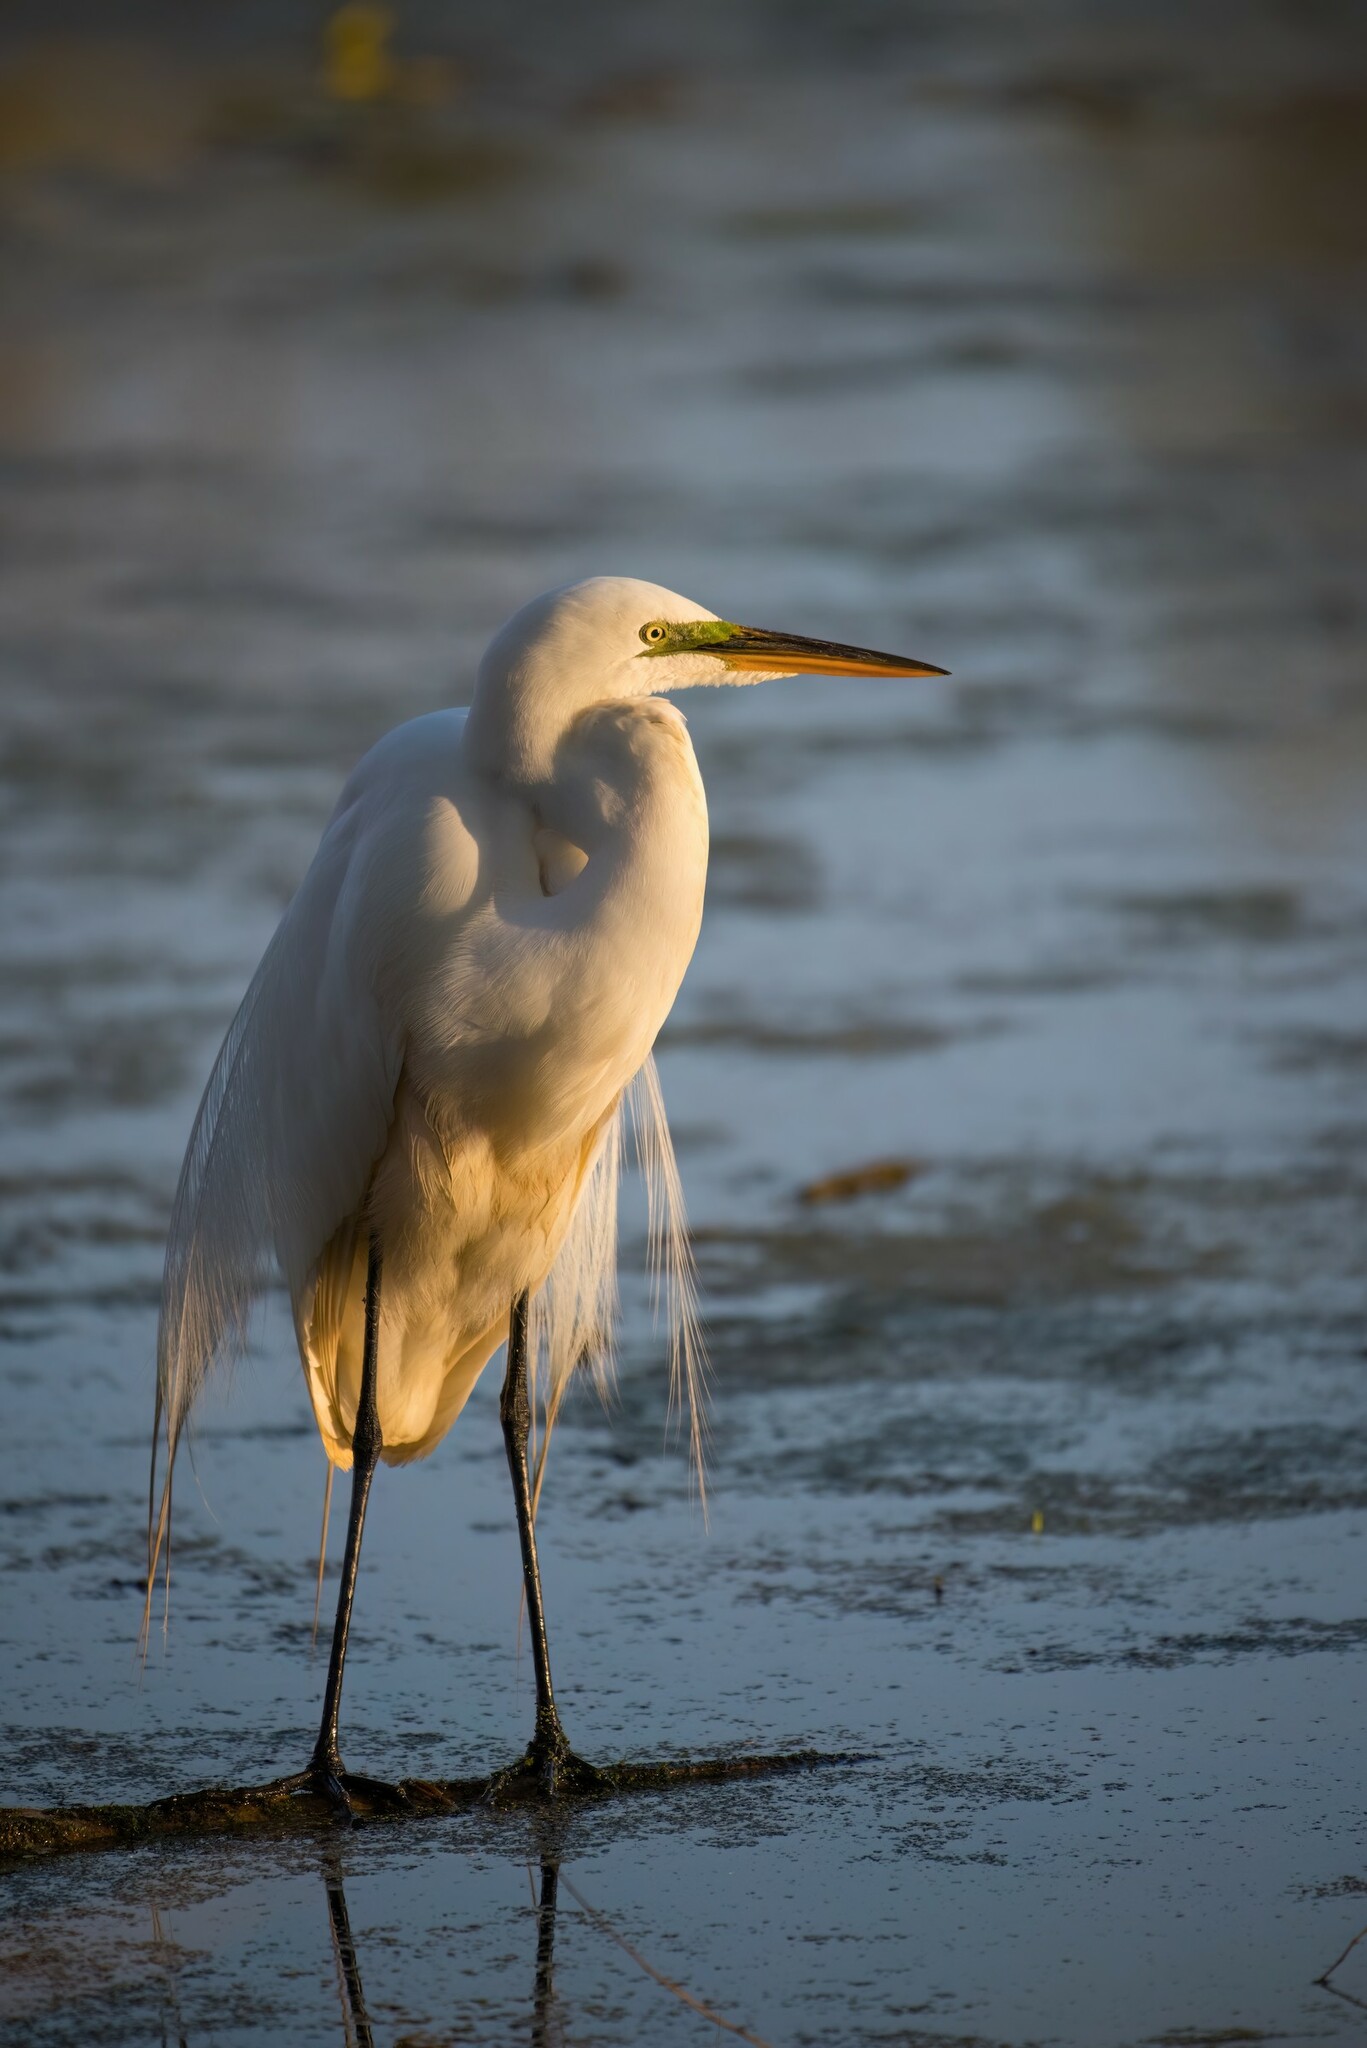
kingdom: Animalia
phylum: Chordata
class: Aves
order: Pelecaniformes
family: Ardeidae
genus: Ardea
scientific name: Ardea alba
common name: Great egret
